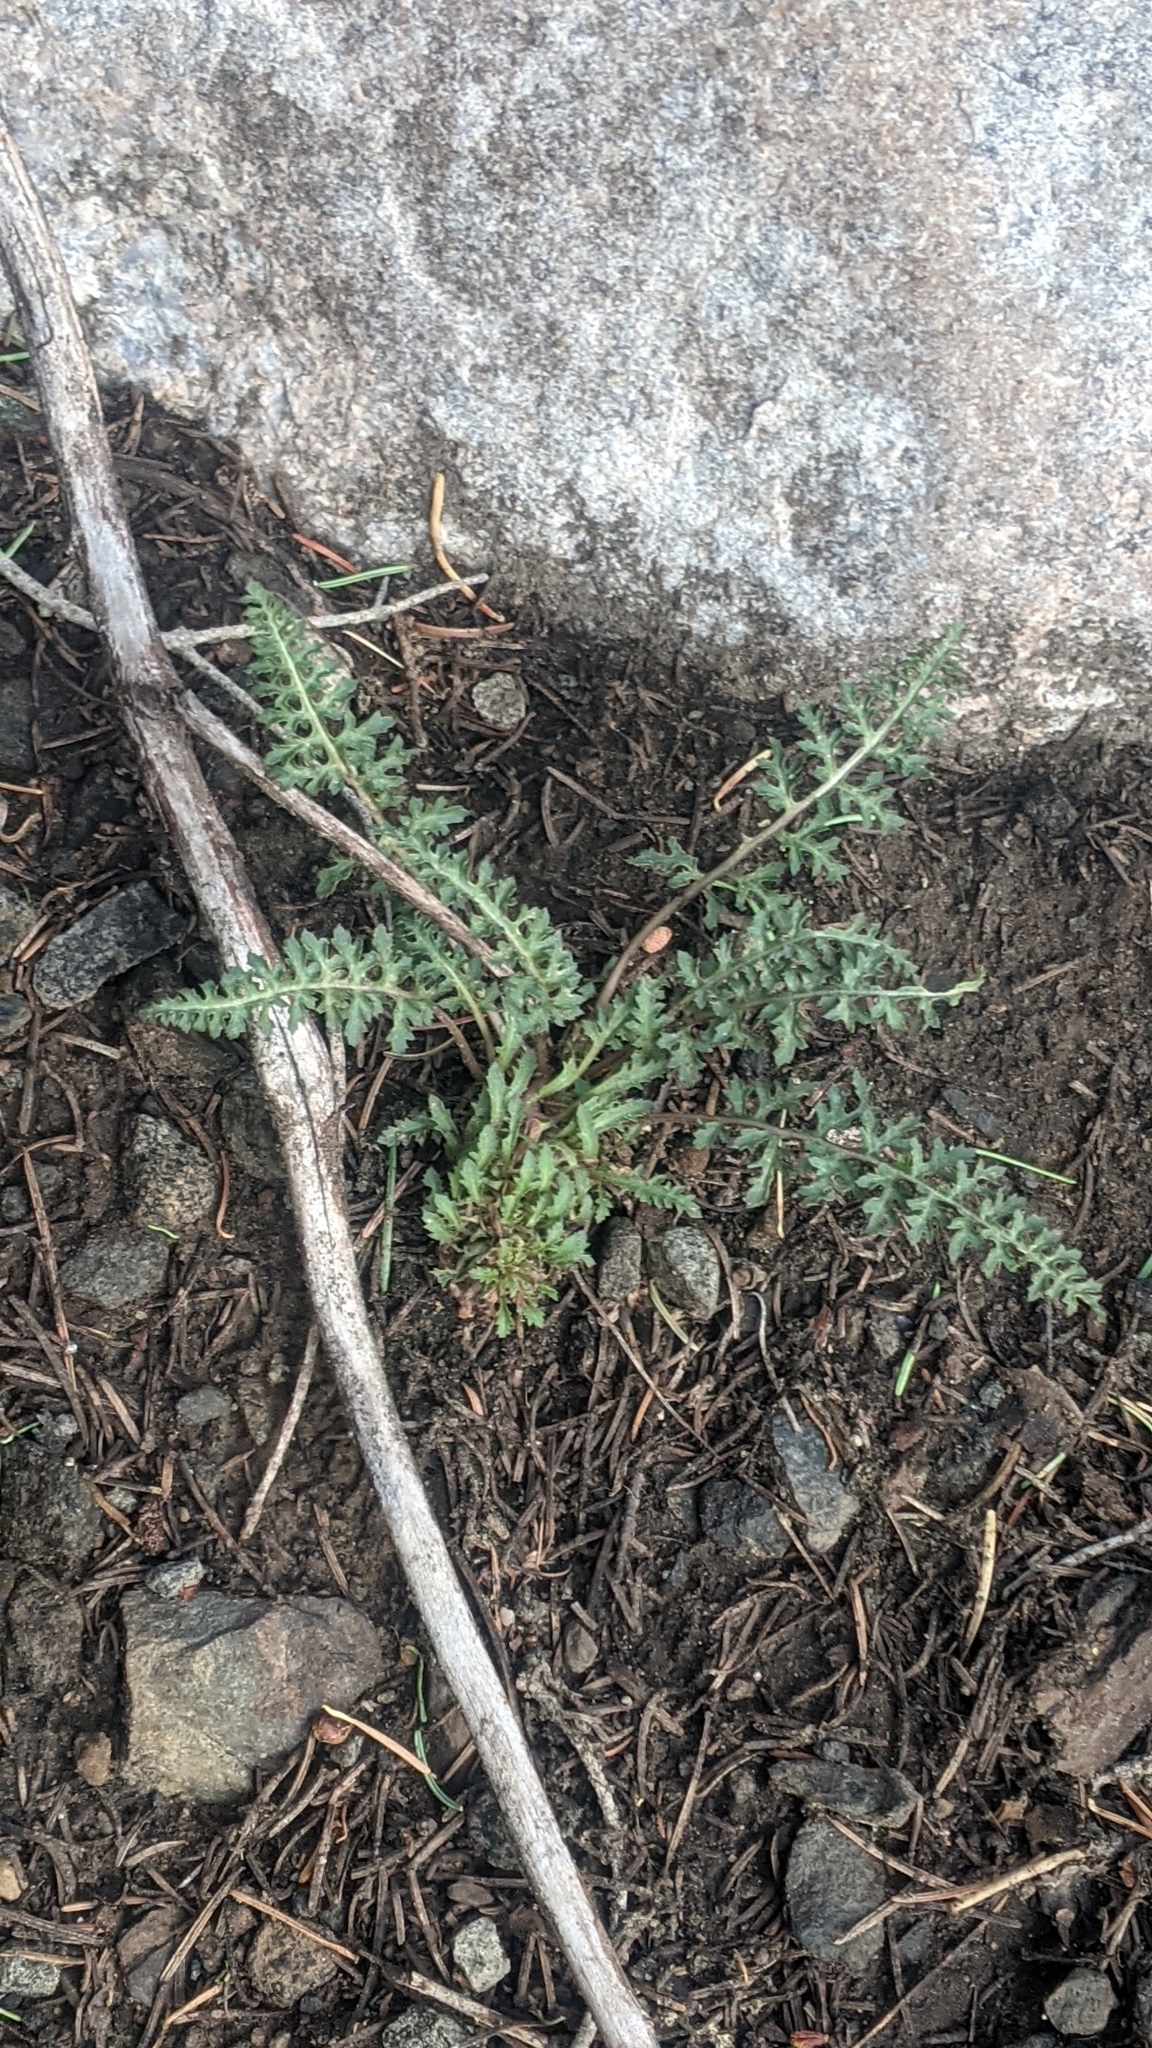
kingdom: Plantae
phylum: Tracheophyta
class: Magnoliopsida
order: Lamiales
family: Orobanchaceae
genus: Pedicularis
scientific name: Pedicularis semibarbata
